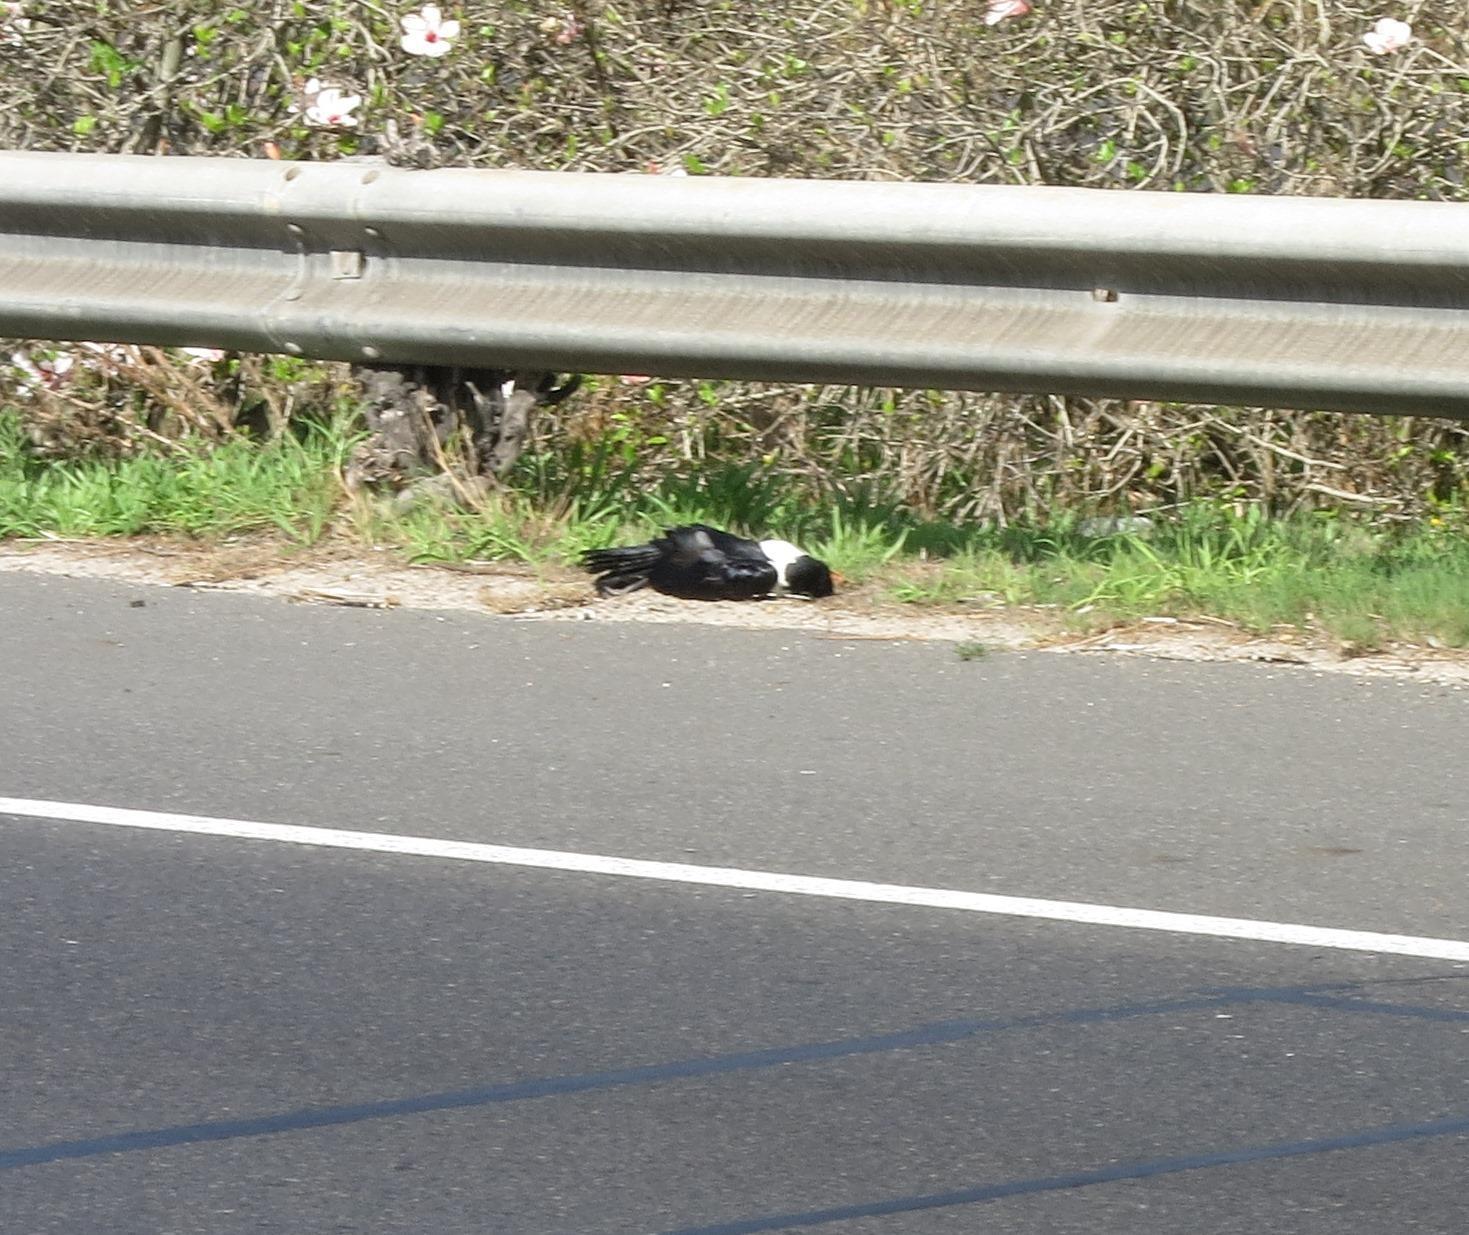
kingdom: Animalia
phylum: Chordata
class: Aves
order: Passeriformes
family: Corvidae
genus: Corvus
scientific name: Corvus albus
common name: Pied crow
